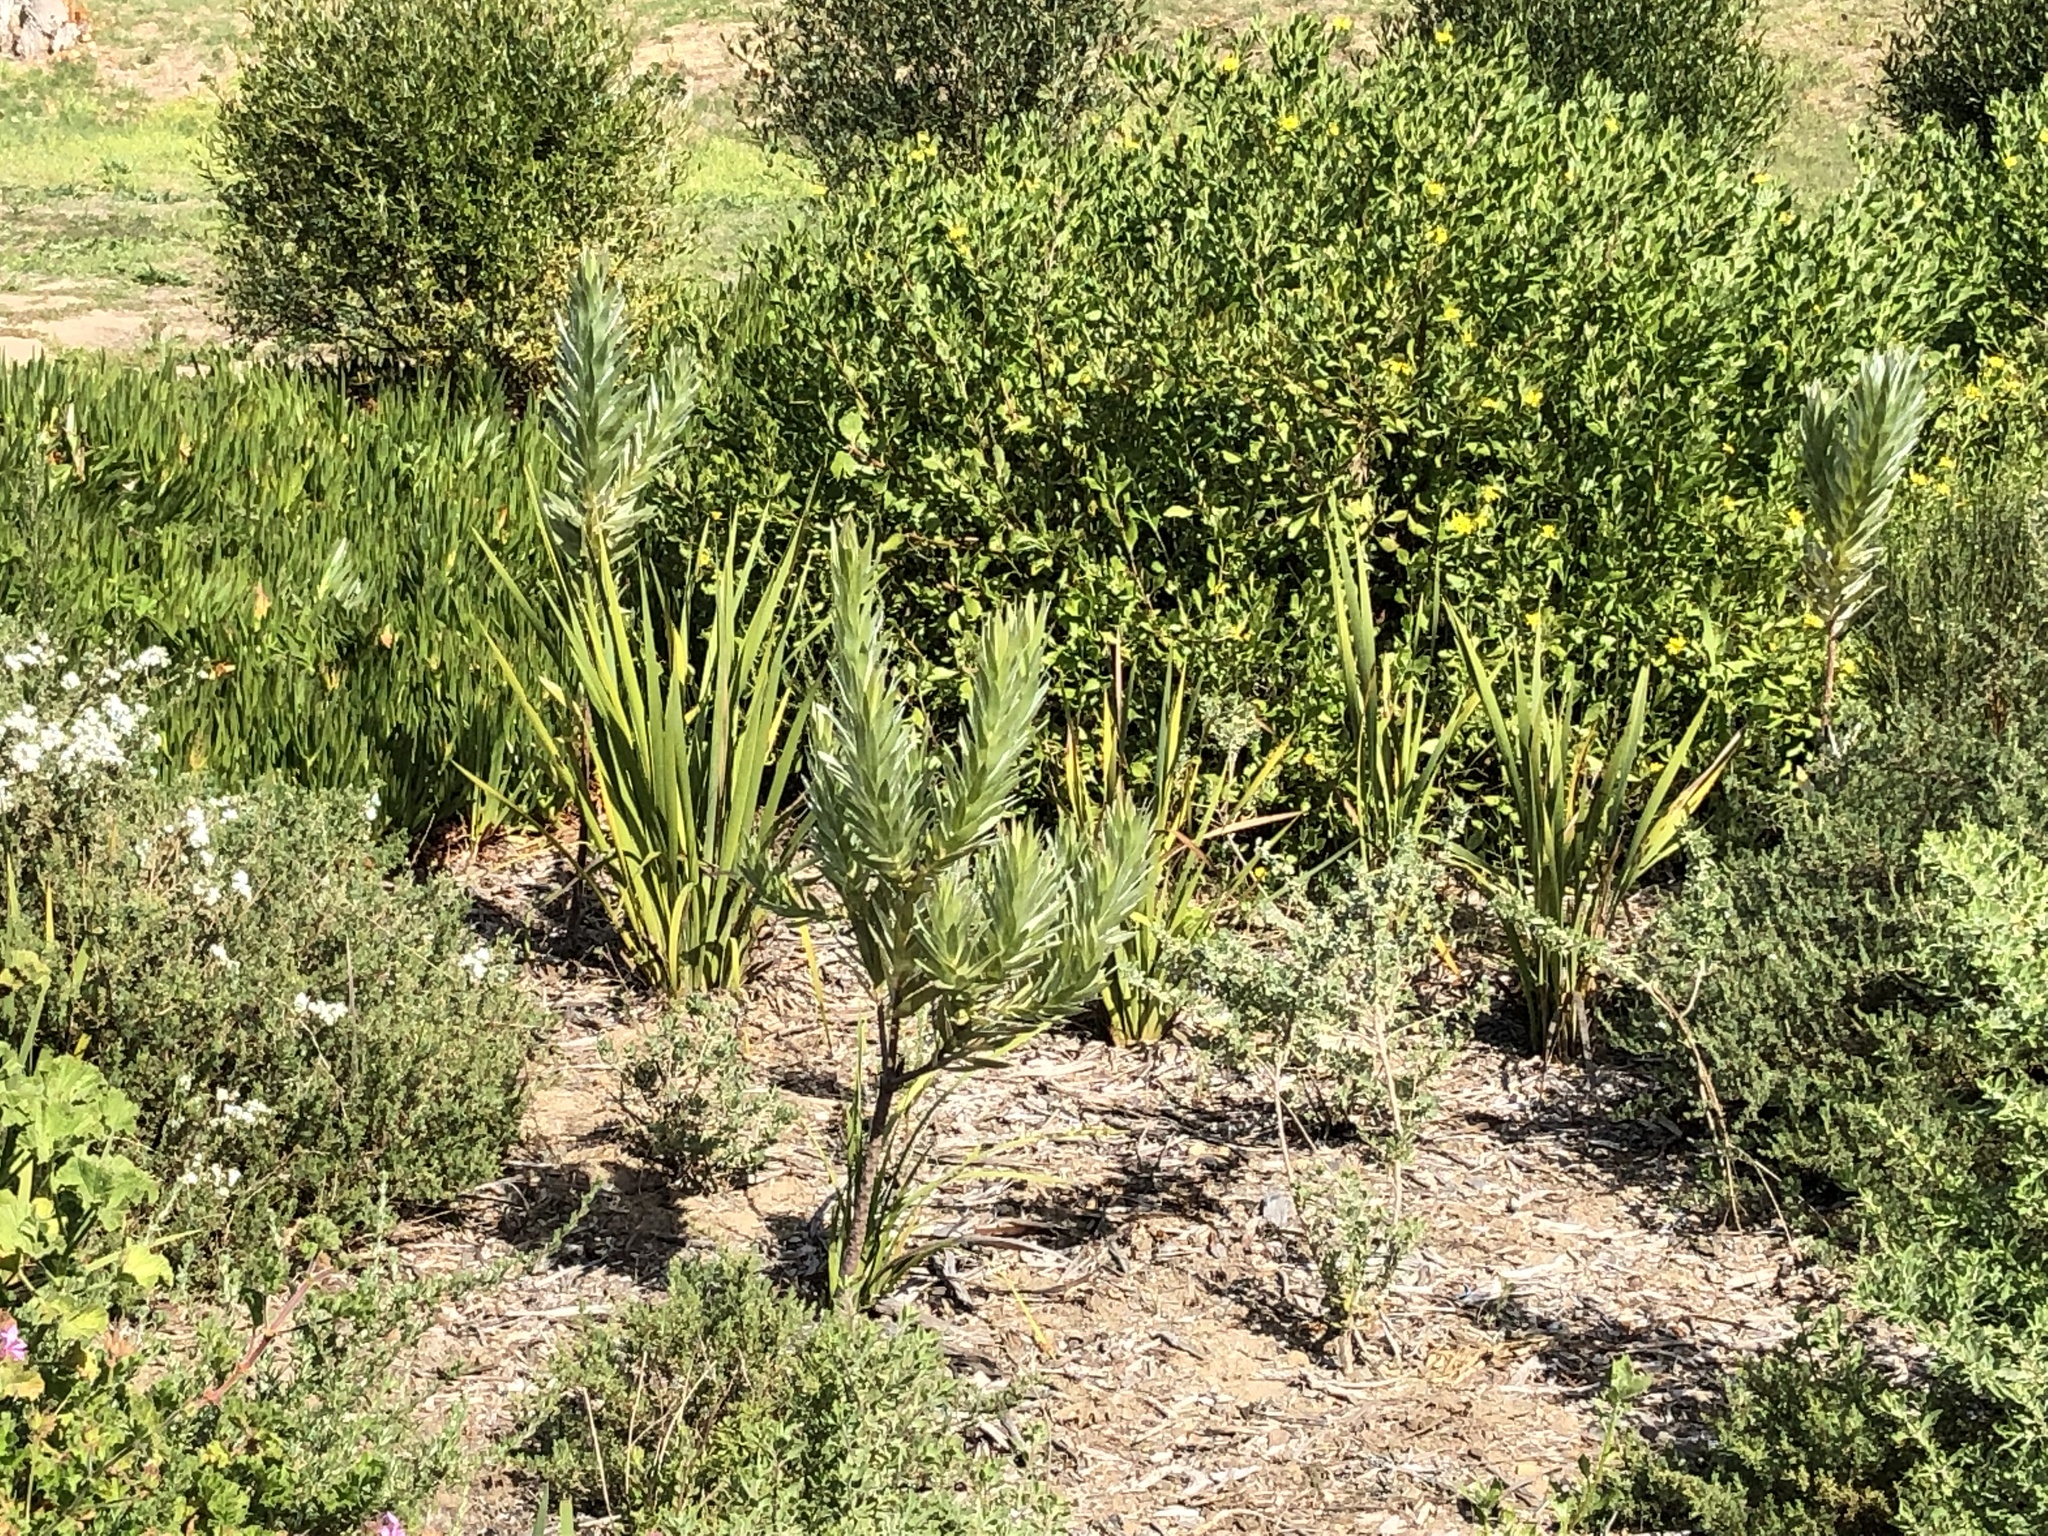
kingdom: Plantae
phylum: Tracheophyta
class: Magnoliopsida
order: Proteales
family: Proteaceae
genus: Leucadendron
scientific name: Leucadendron argenteum
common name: Cape silver tree
